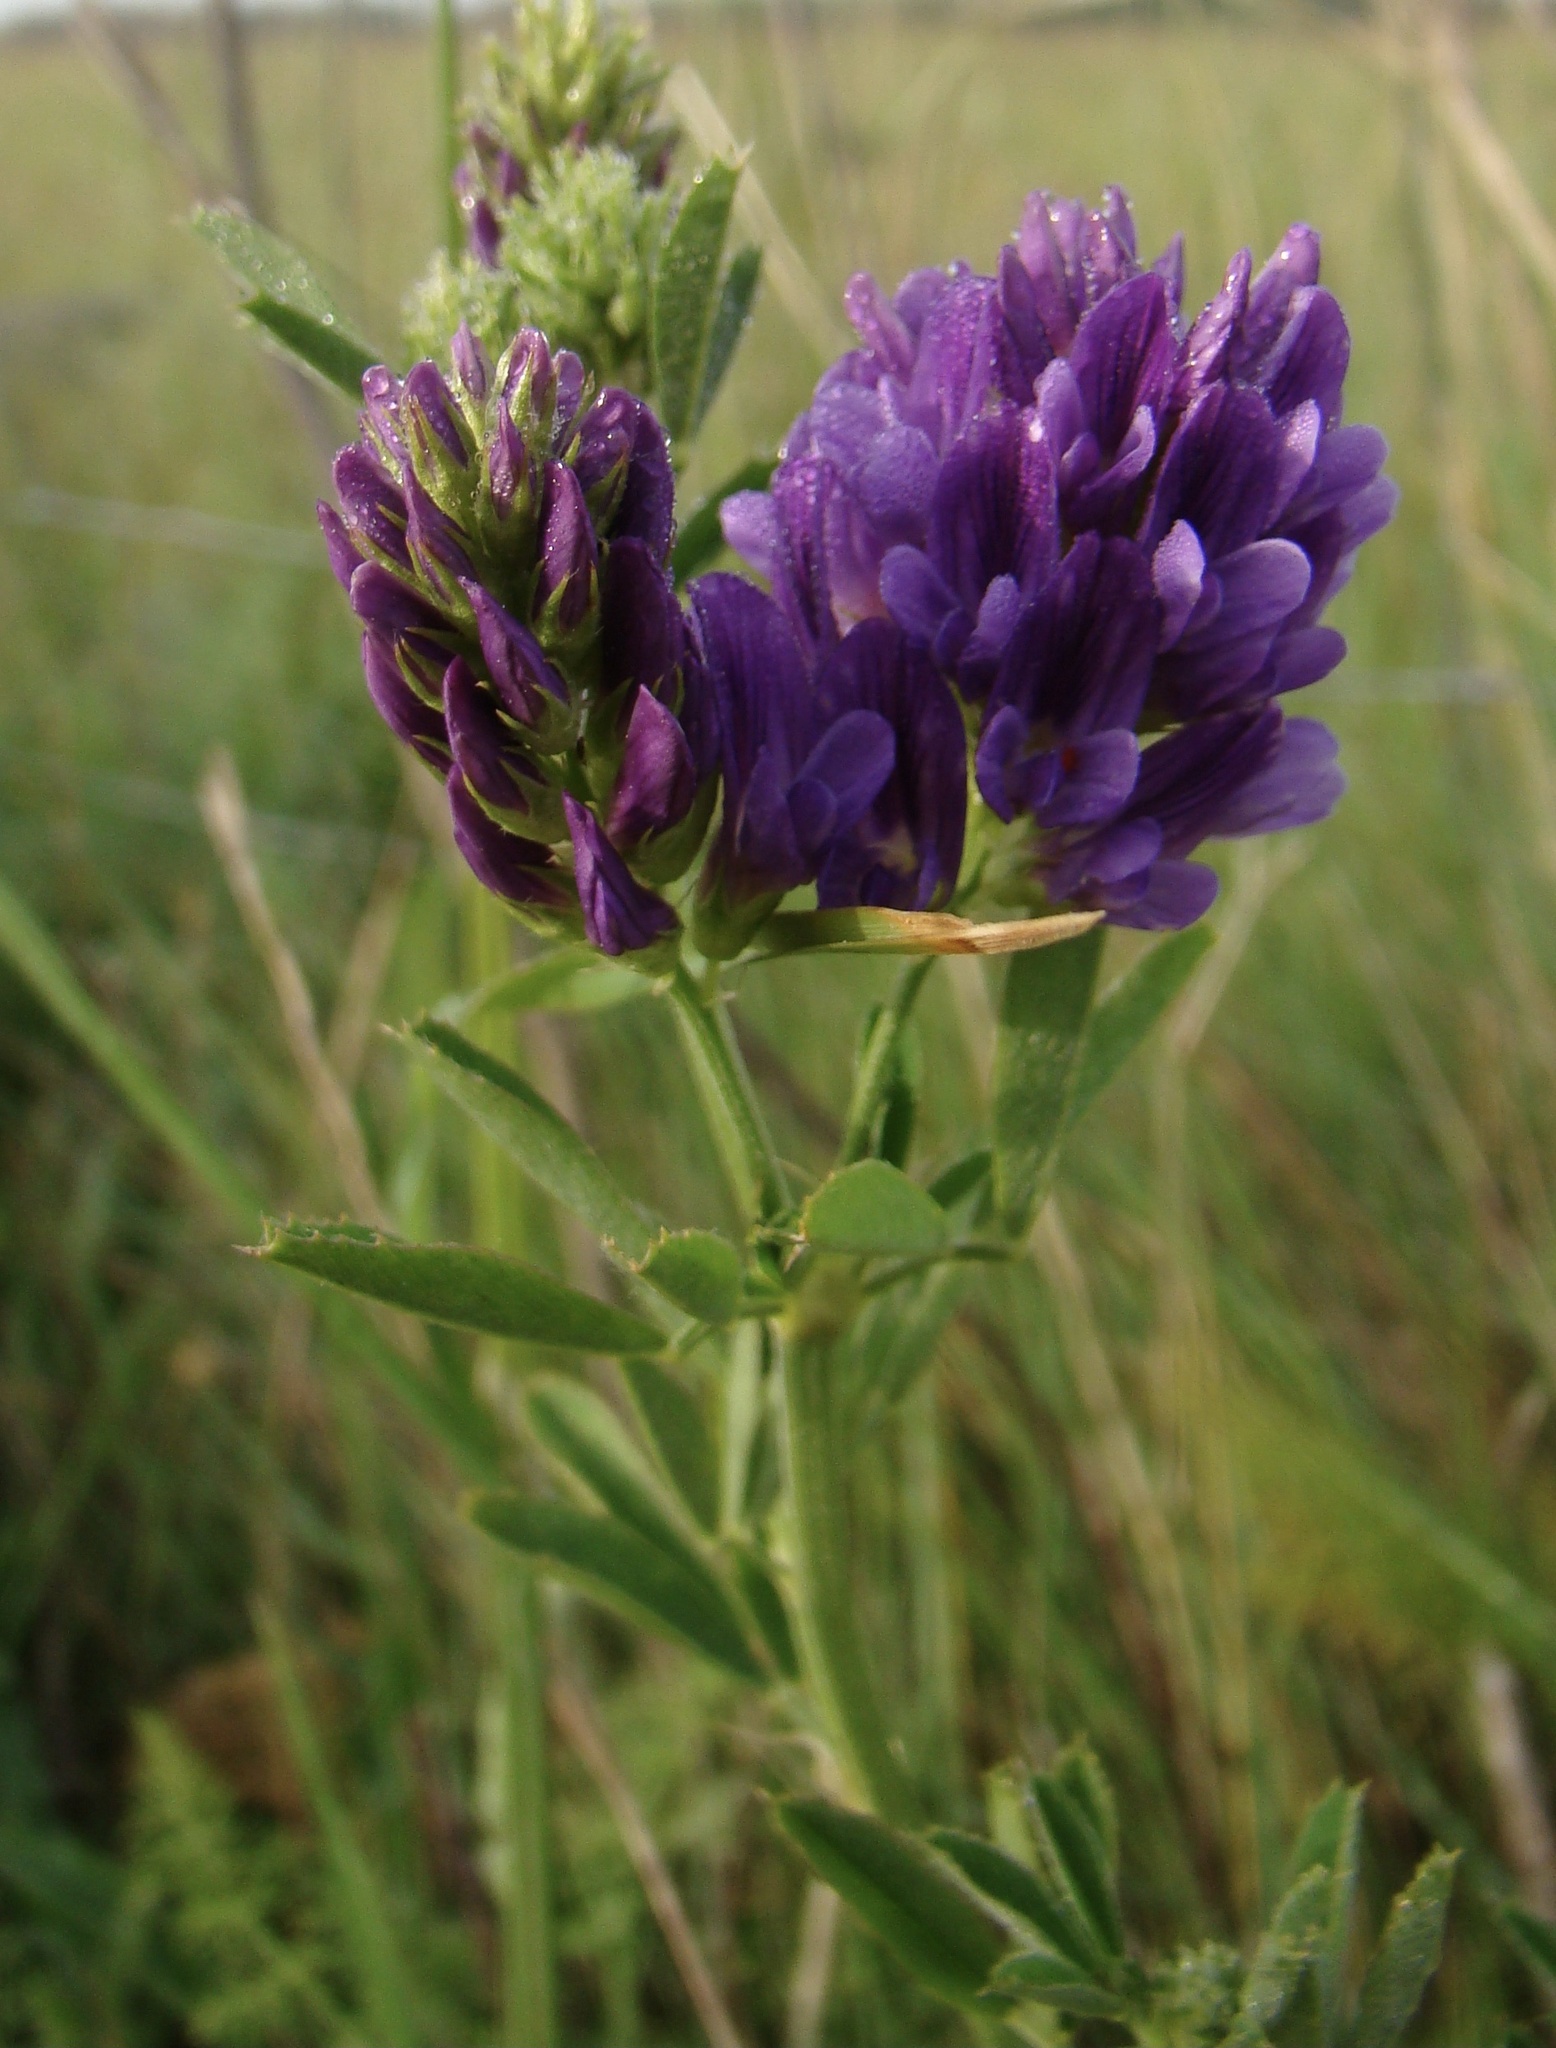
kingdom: Plantae
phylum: Tracheophyta
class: Magnoliopsida
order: Fabales
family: Fabaceae
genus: Medicago
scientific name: Medicago sativa
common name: Alfalfa
